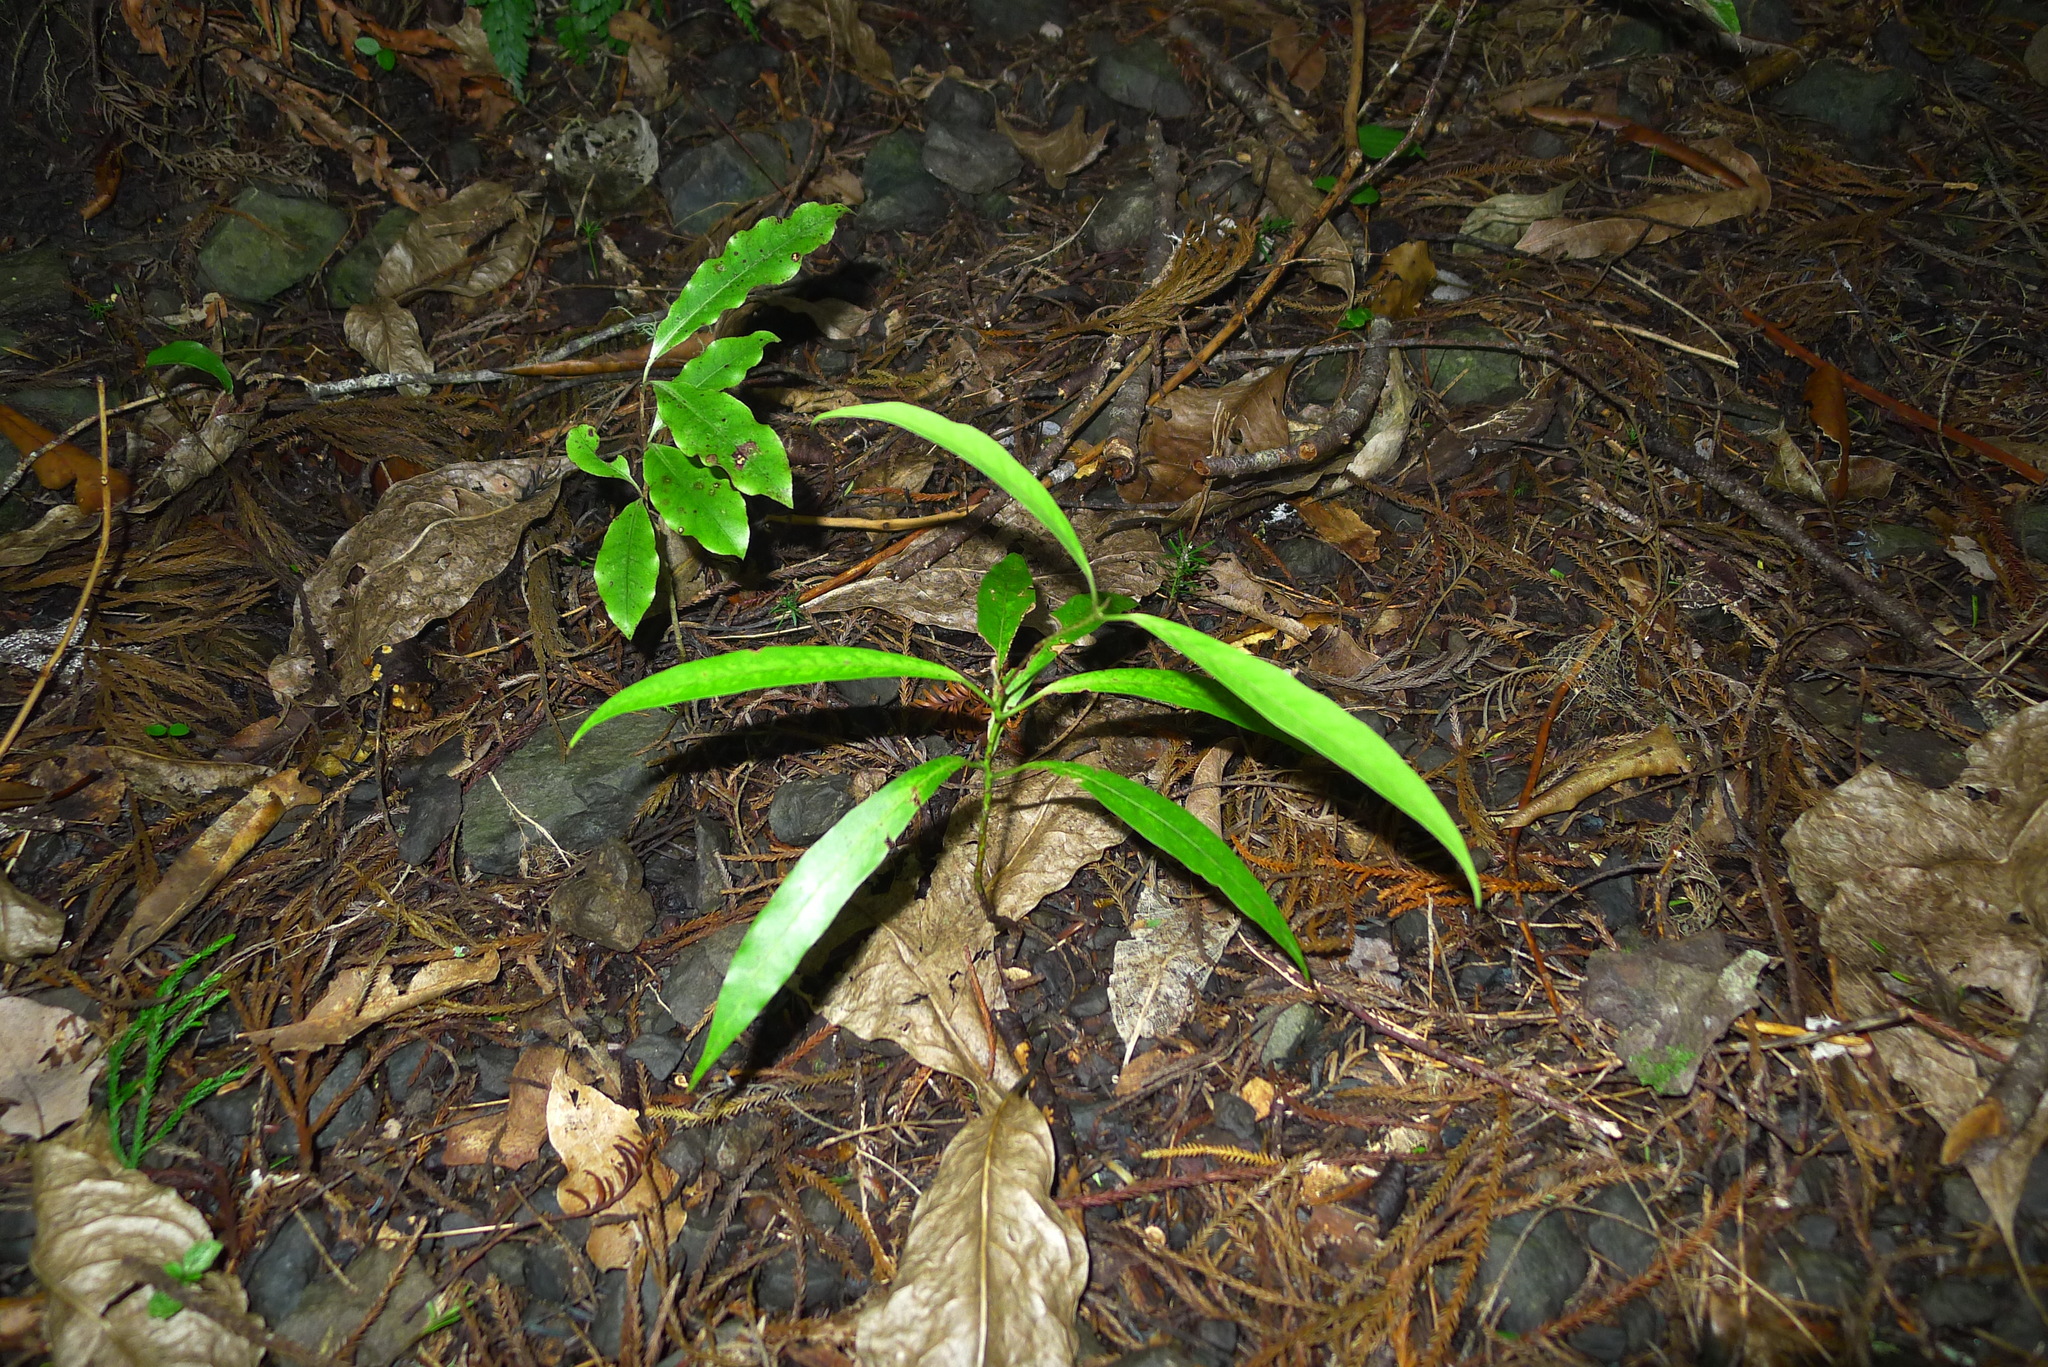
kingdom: Plantae
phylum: Tracheophyta
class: Magnoliopsida
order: Laurales
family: Lauraceae
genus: Beilschmiedia
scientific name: Beilschmiedia tawa
